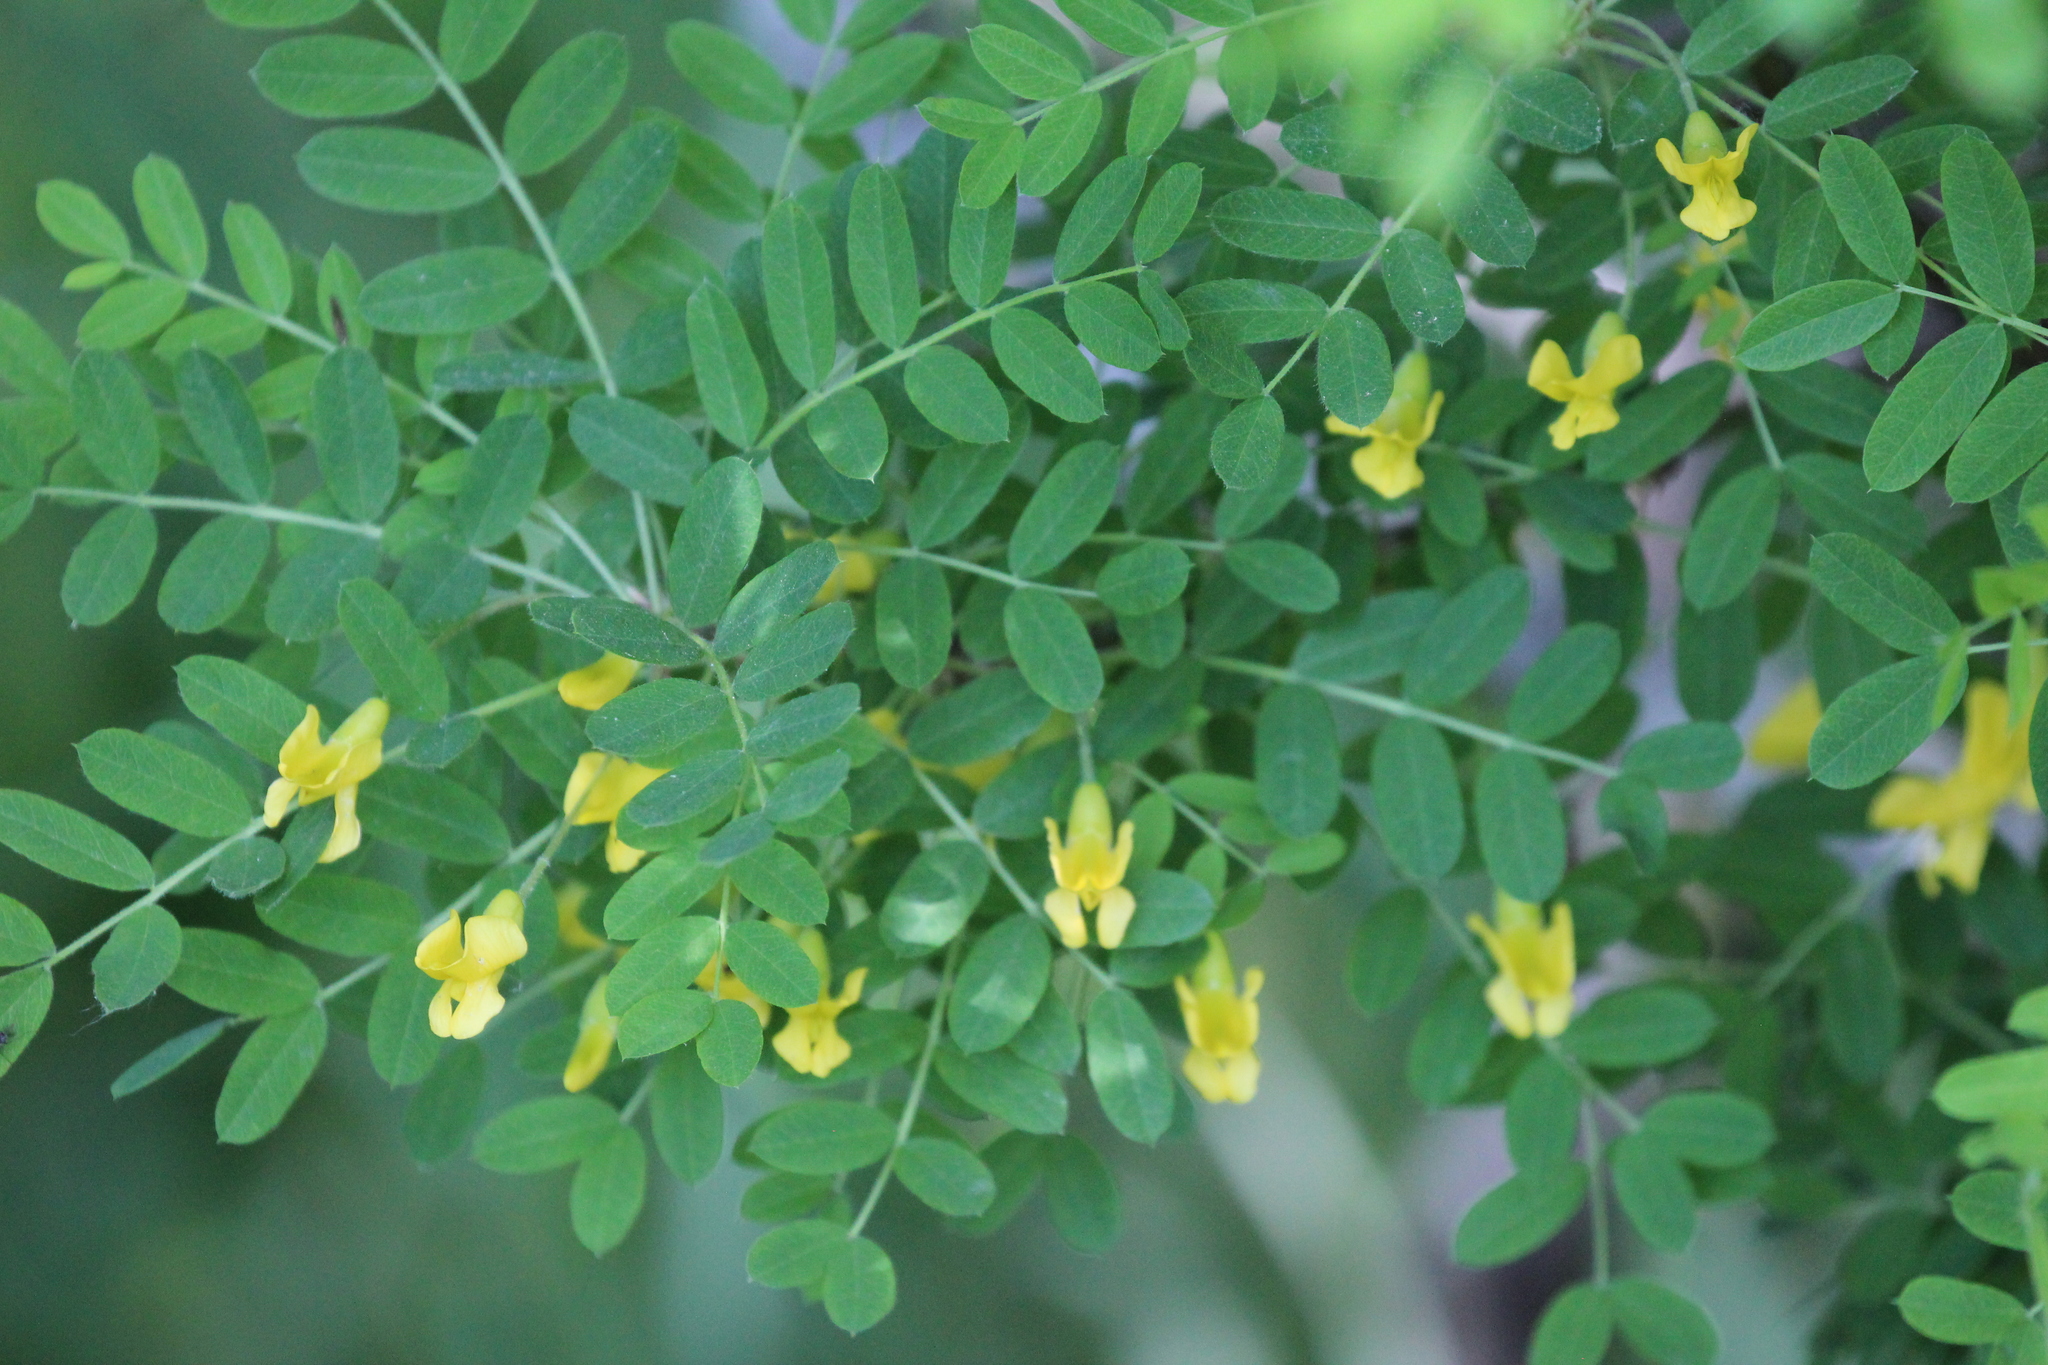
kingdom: Plantae
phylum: Tracheophyta
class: Magnoliopsida
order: Fabales
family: Fabaceae
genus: Caragana
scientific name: Caragana arborescens
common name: Siberian peashrub
